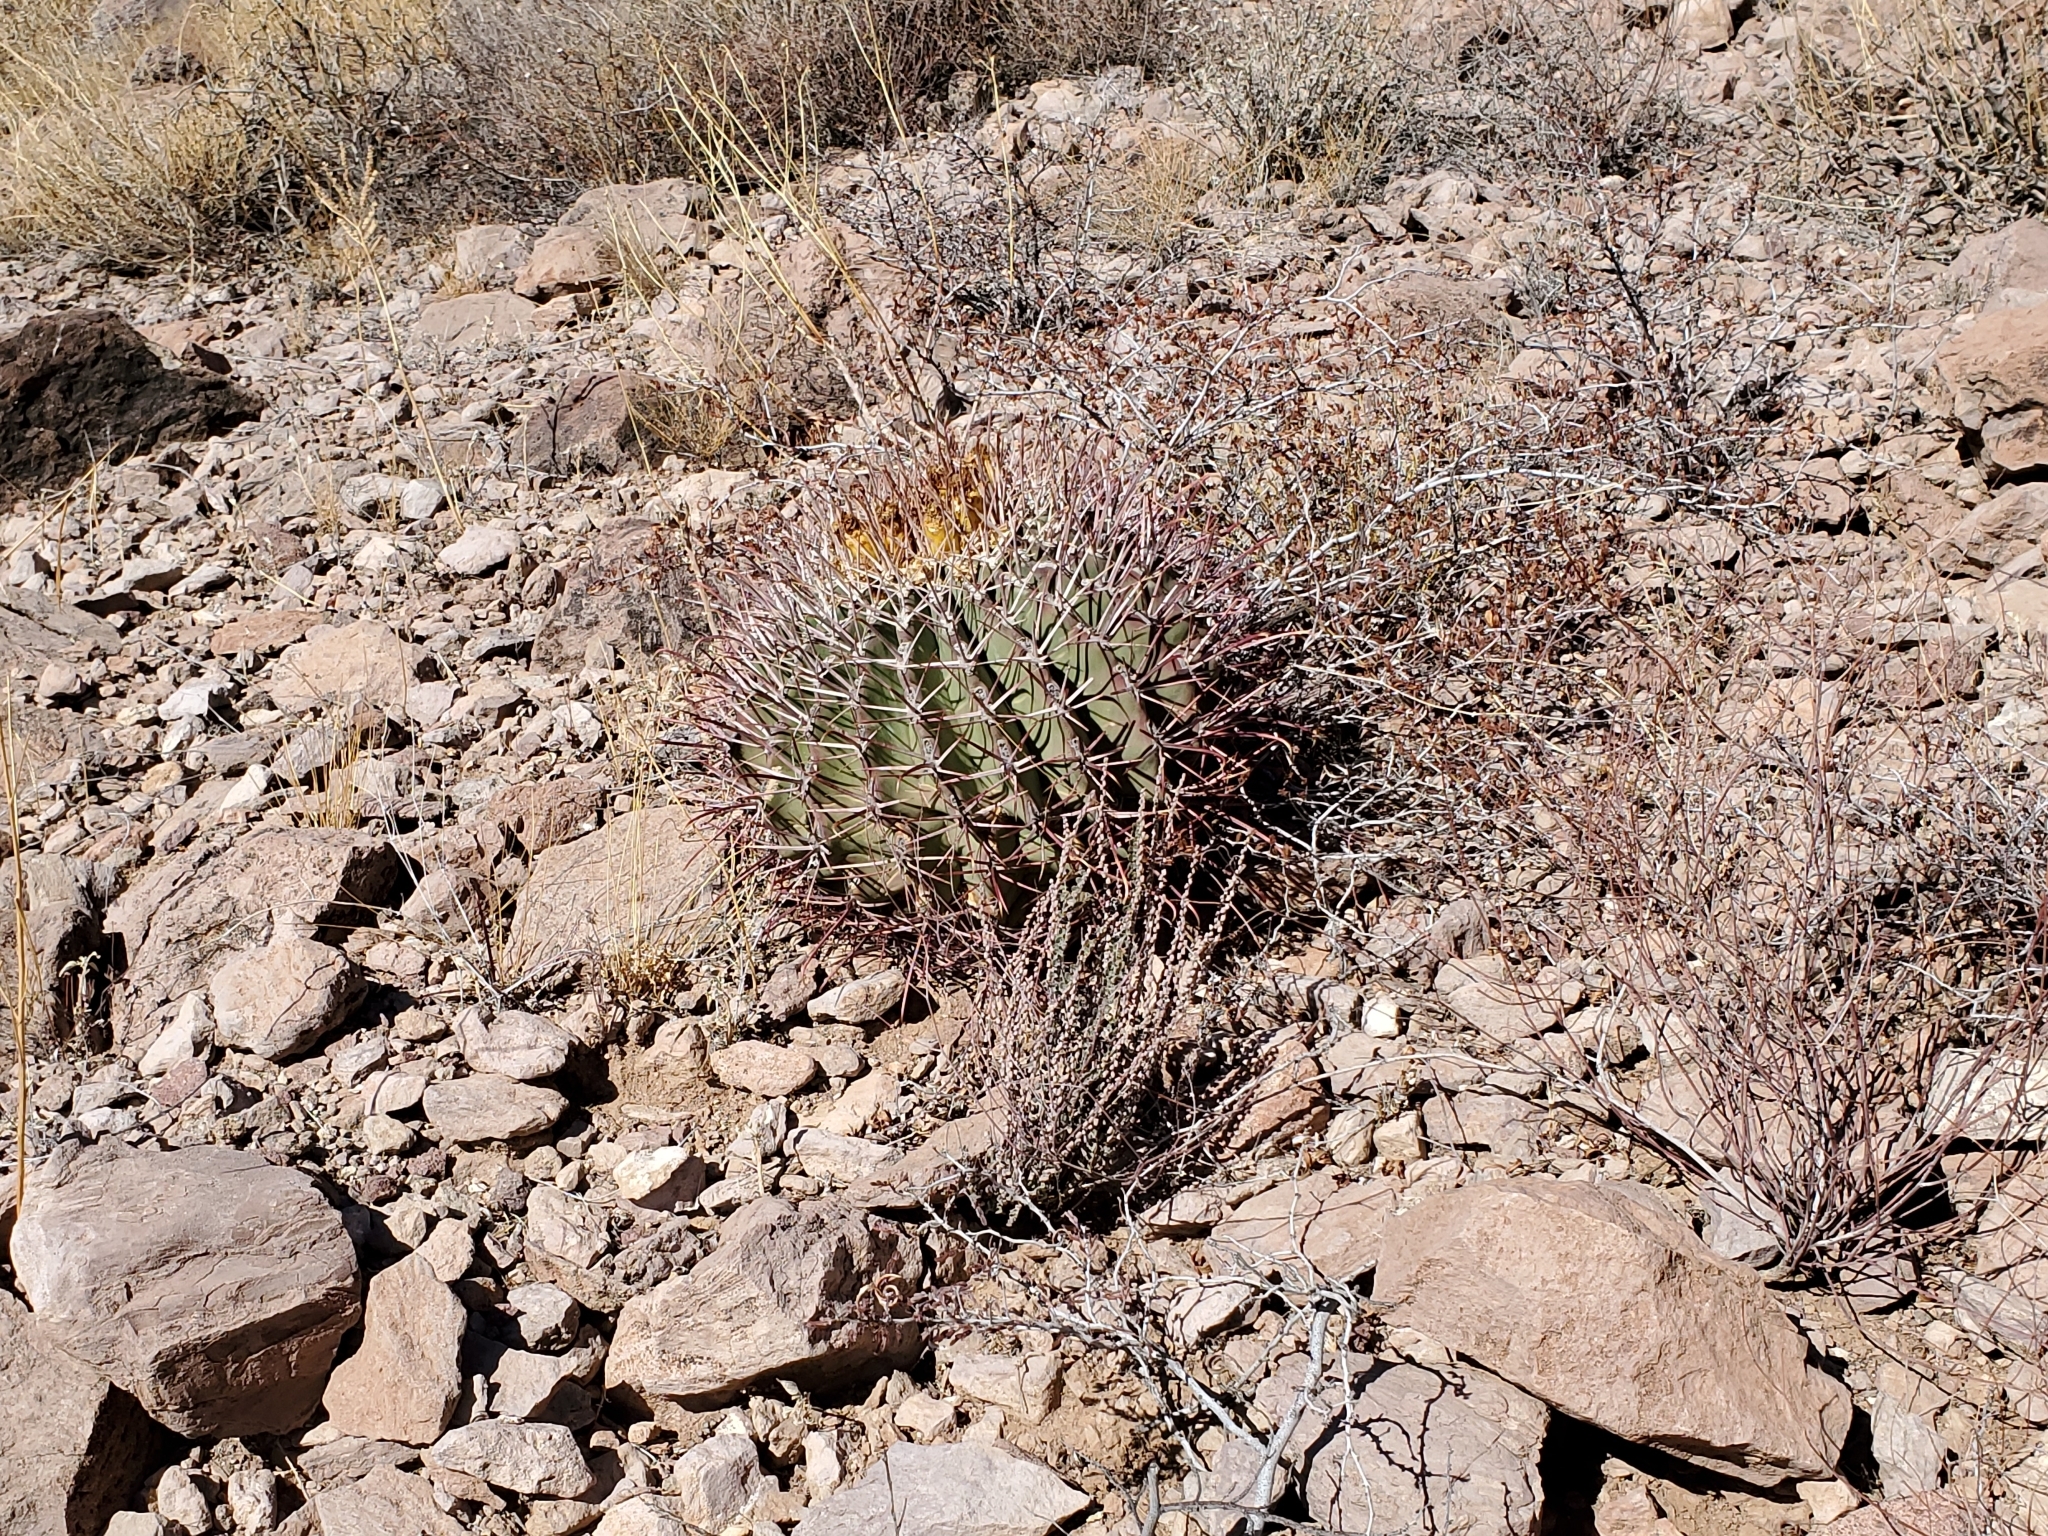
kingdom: Plantae
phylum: Tracheophyta
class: Magnoliopsida
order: Caryophyllales
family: Cactaceae
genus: Ferocactus
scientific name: Ferocactus emoryi
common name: Emory's barrel cactus
